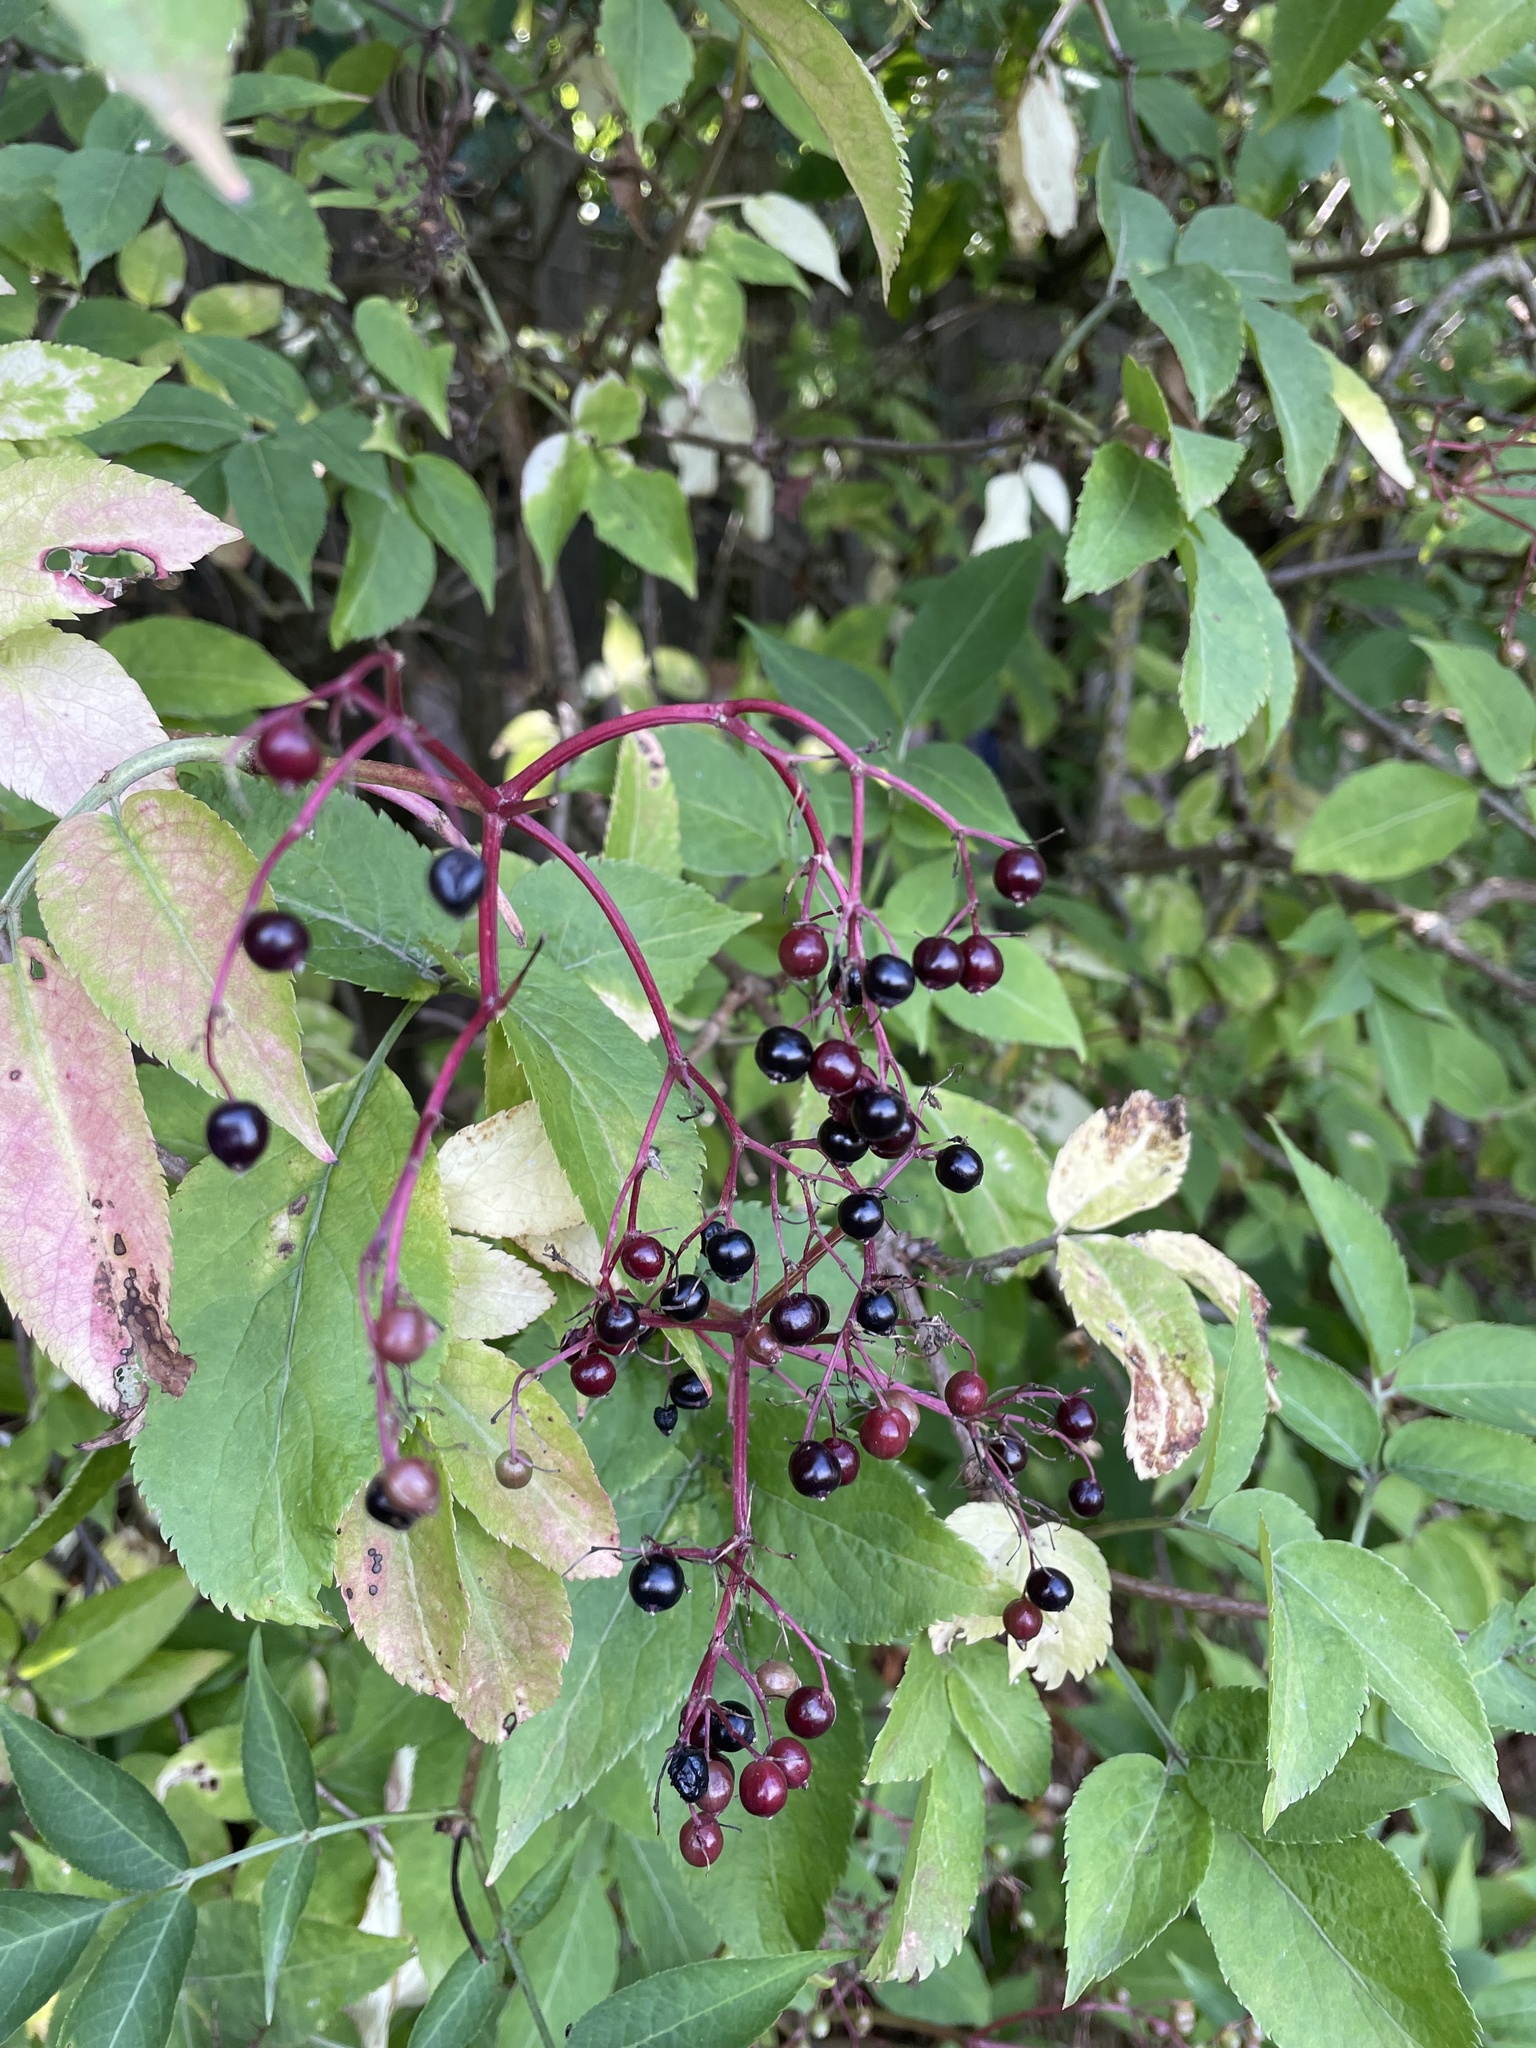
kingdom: Plantae
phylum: Tracheophyta
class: Magnoliopsida
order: Dipsacales
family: Viburnaceae
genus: Sambucus
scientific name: Sambucus nigra
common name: Elder
